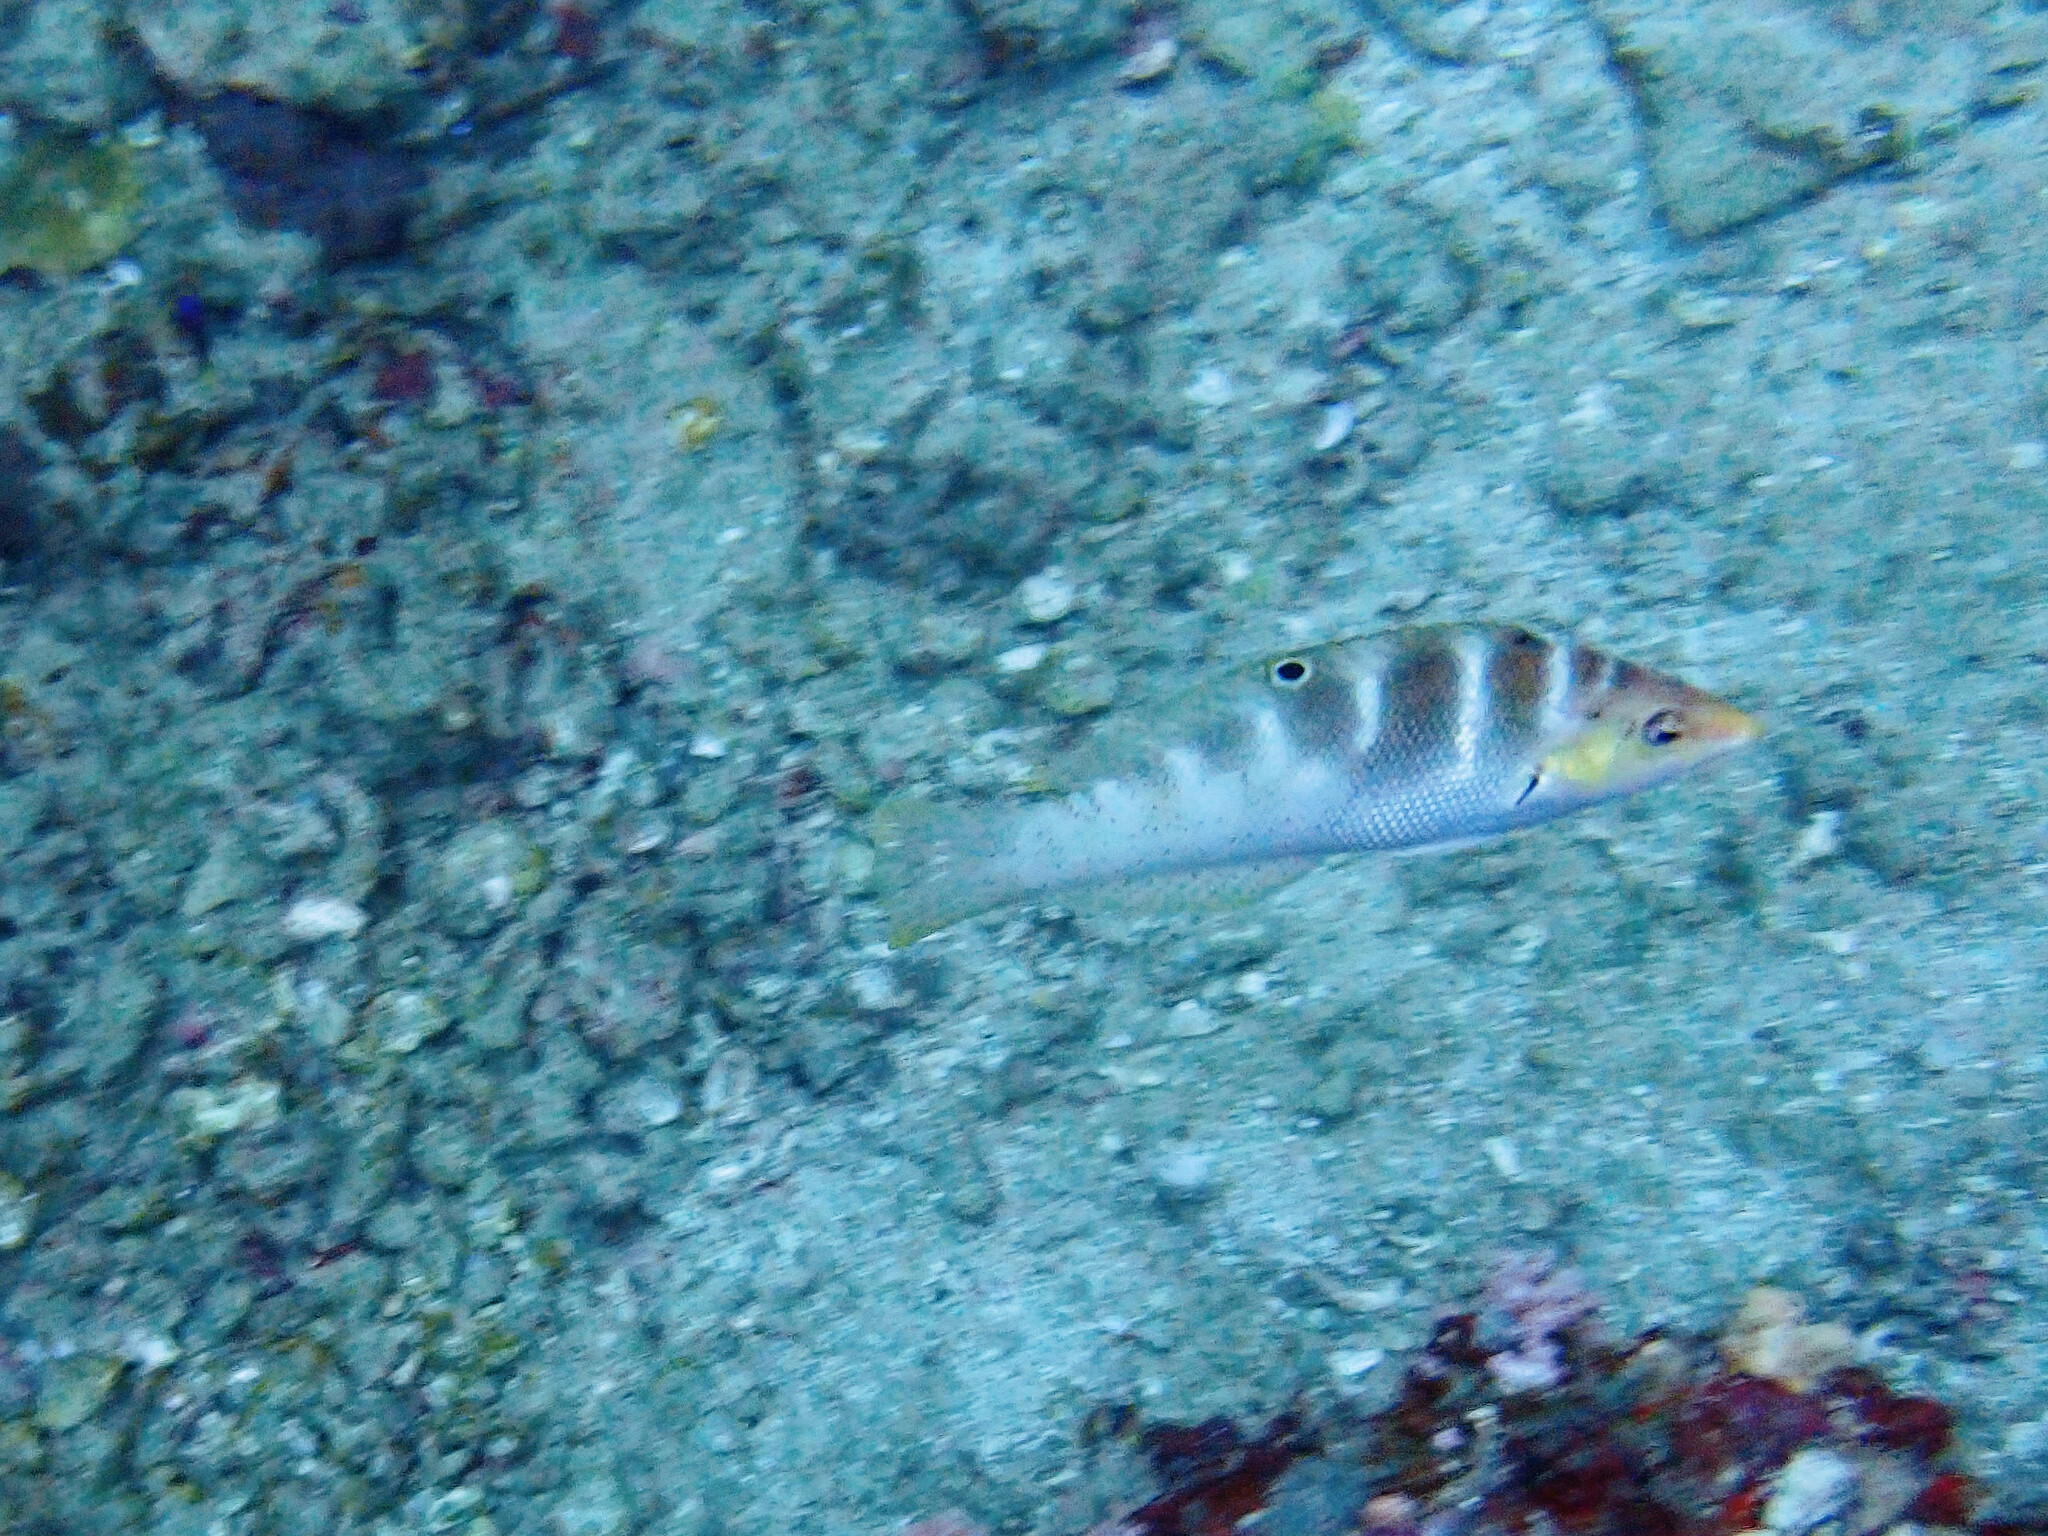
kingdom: Animalia
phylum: Chordata
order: Perciformes
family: Labridae
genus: Coris
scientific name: Coris batuensis
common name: Batu coris
